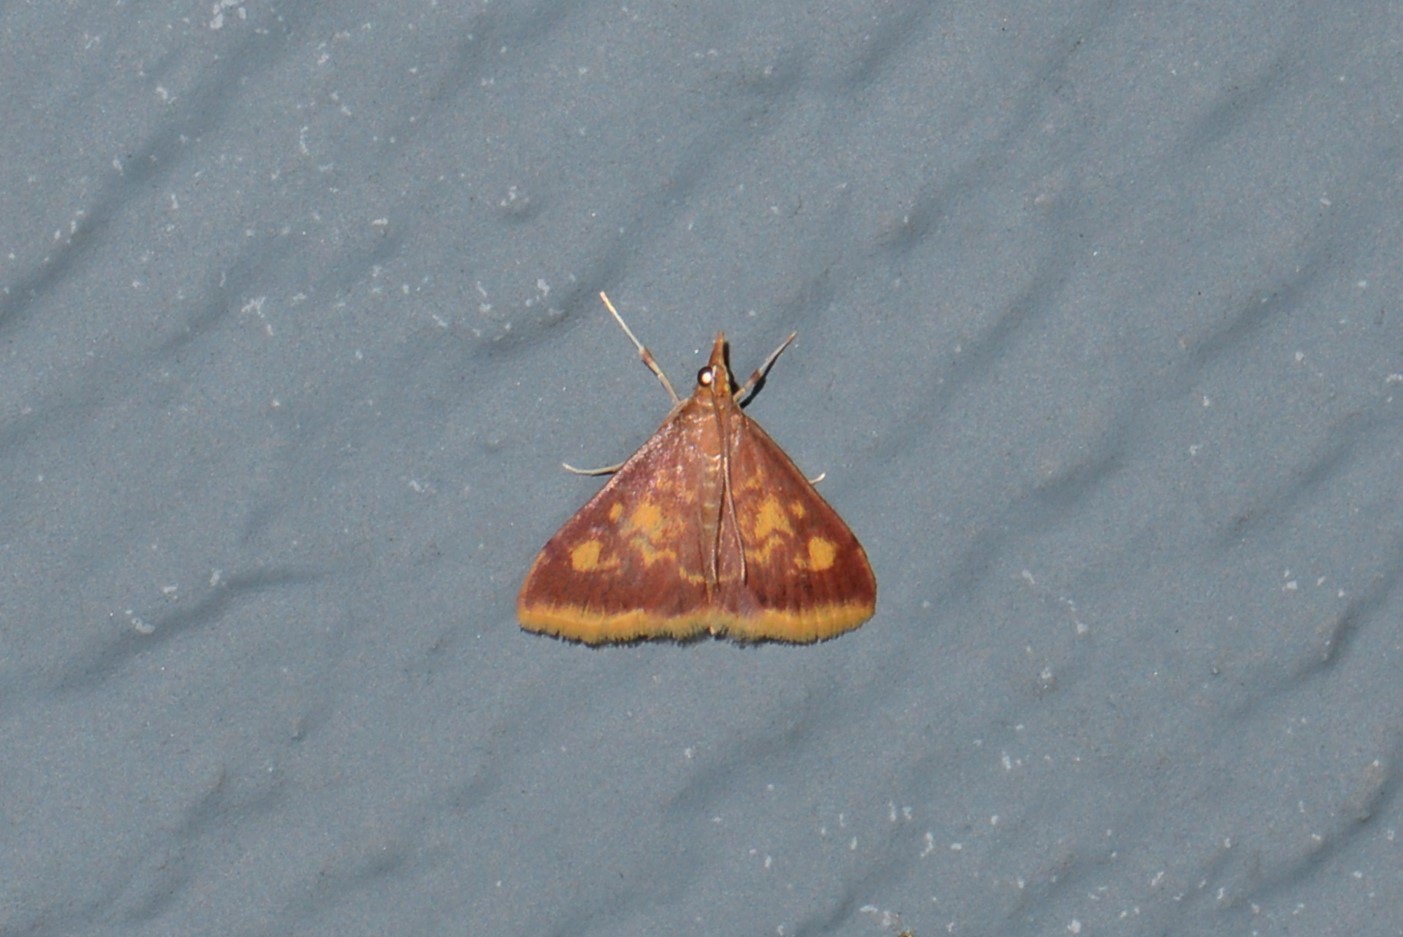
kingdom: Animalia
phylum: Arthropoda
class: Insecta
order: Lepidoptera
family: Crambidae
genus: Pyrausta
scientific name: Pyrausta acrionalis
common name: Mint-loving pyrausta moth
